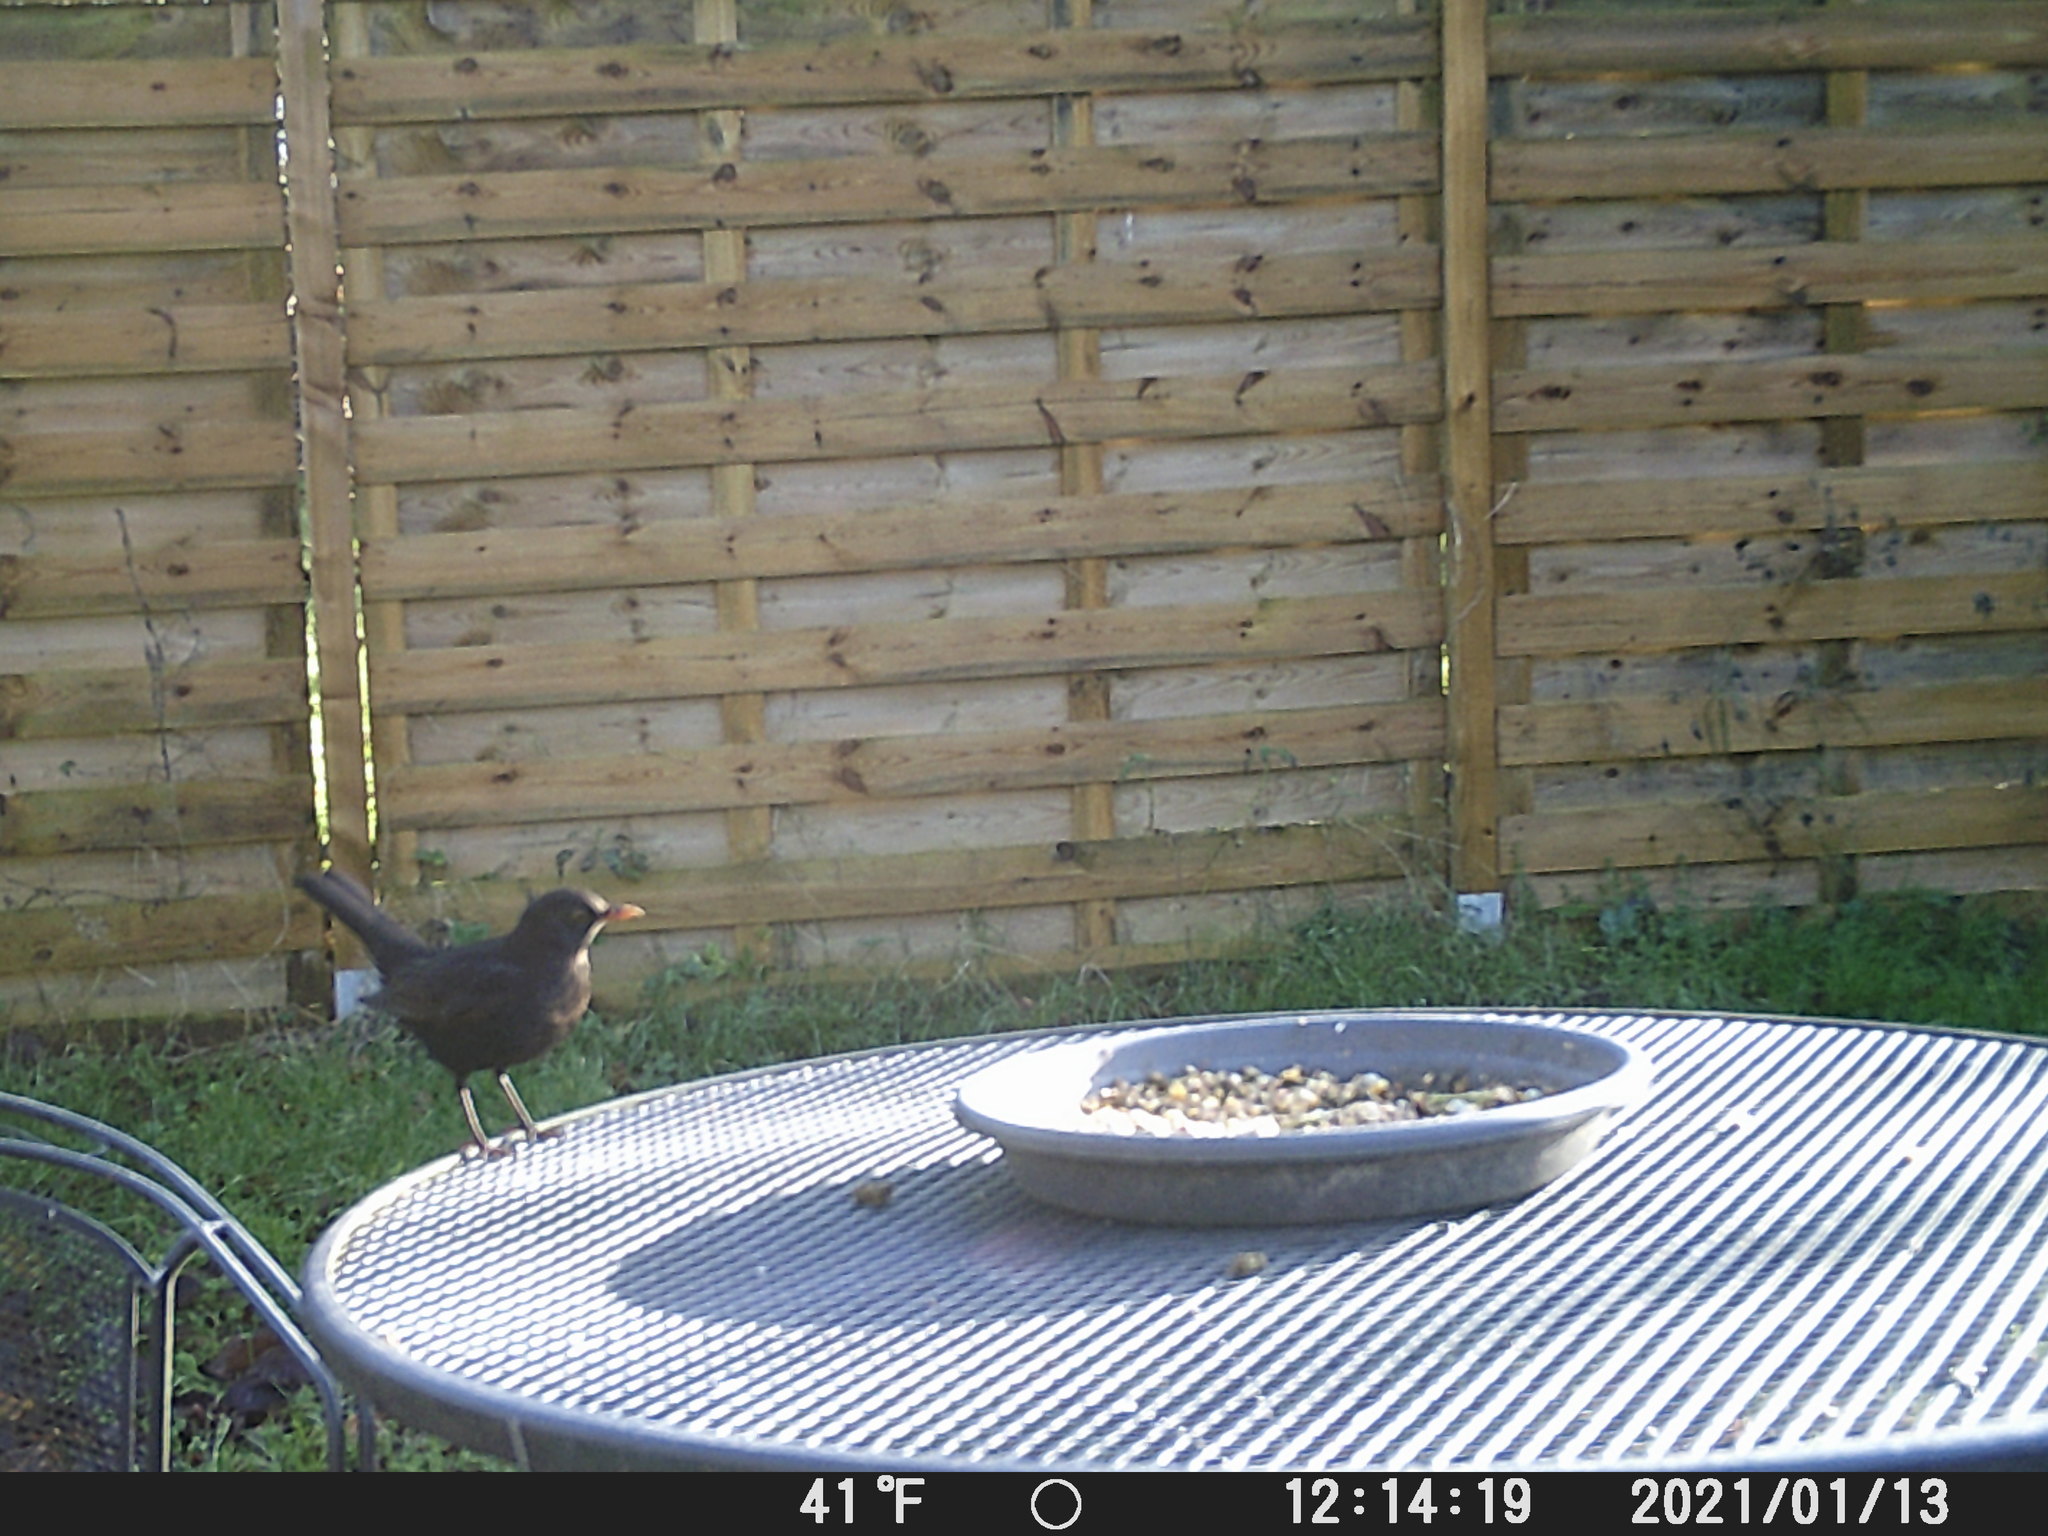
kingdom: Animalia
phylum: Chordata
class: Aves
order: Passeriformes
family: Turdidae
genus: Turdus
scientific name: Turdus merula
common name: Common blackbird
